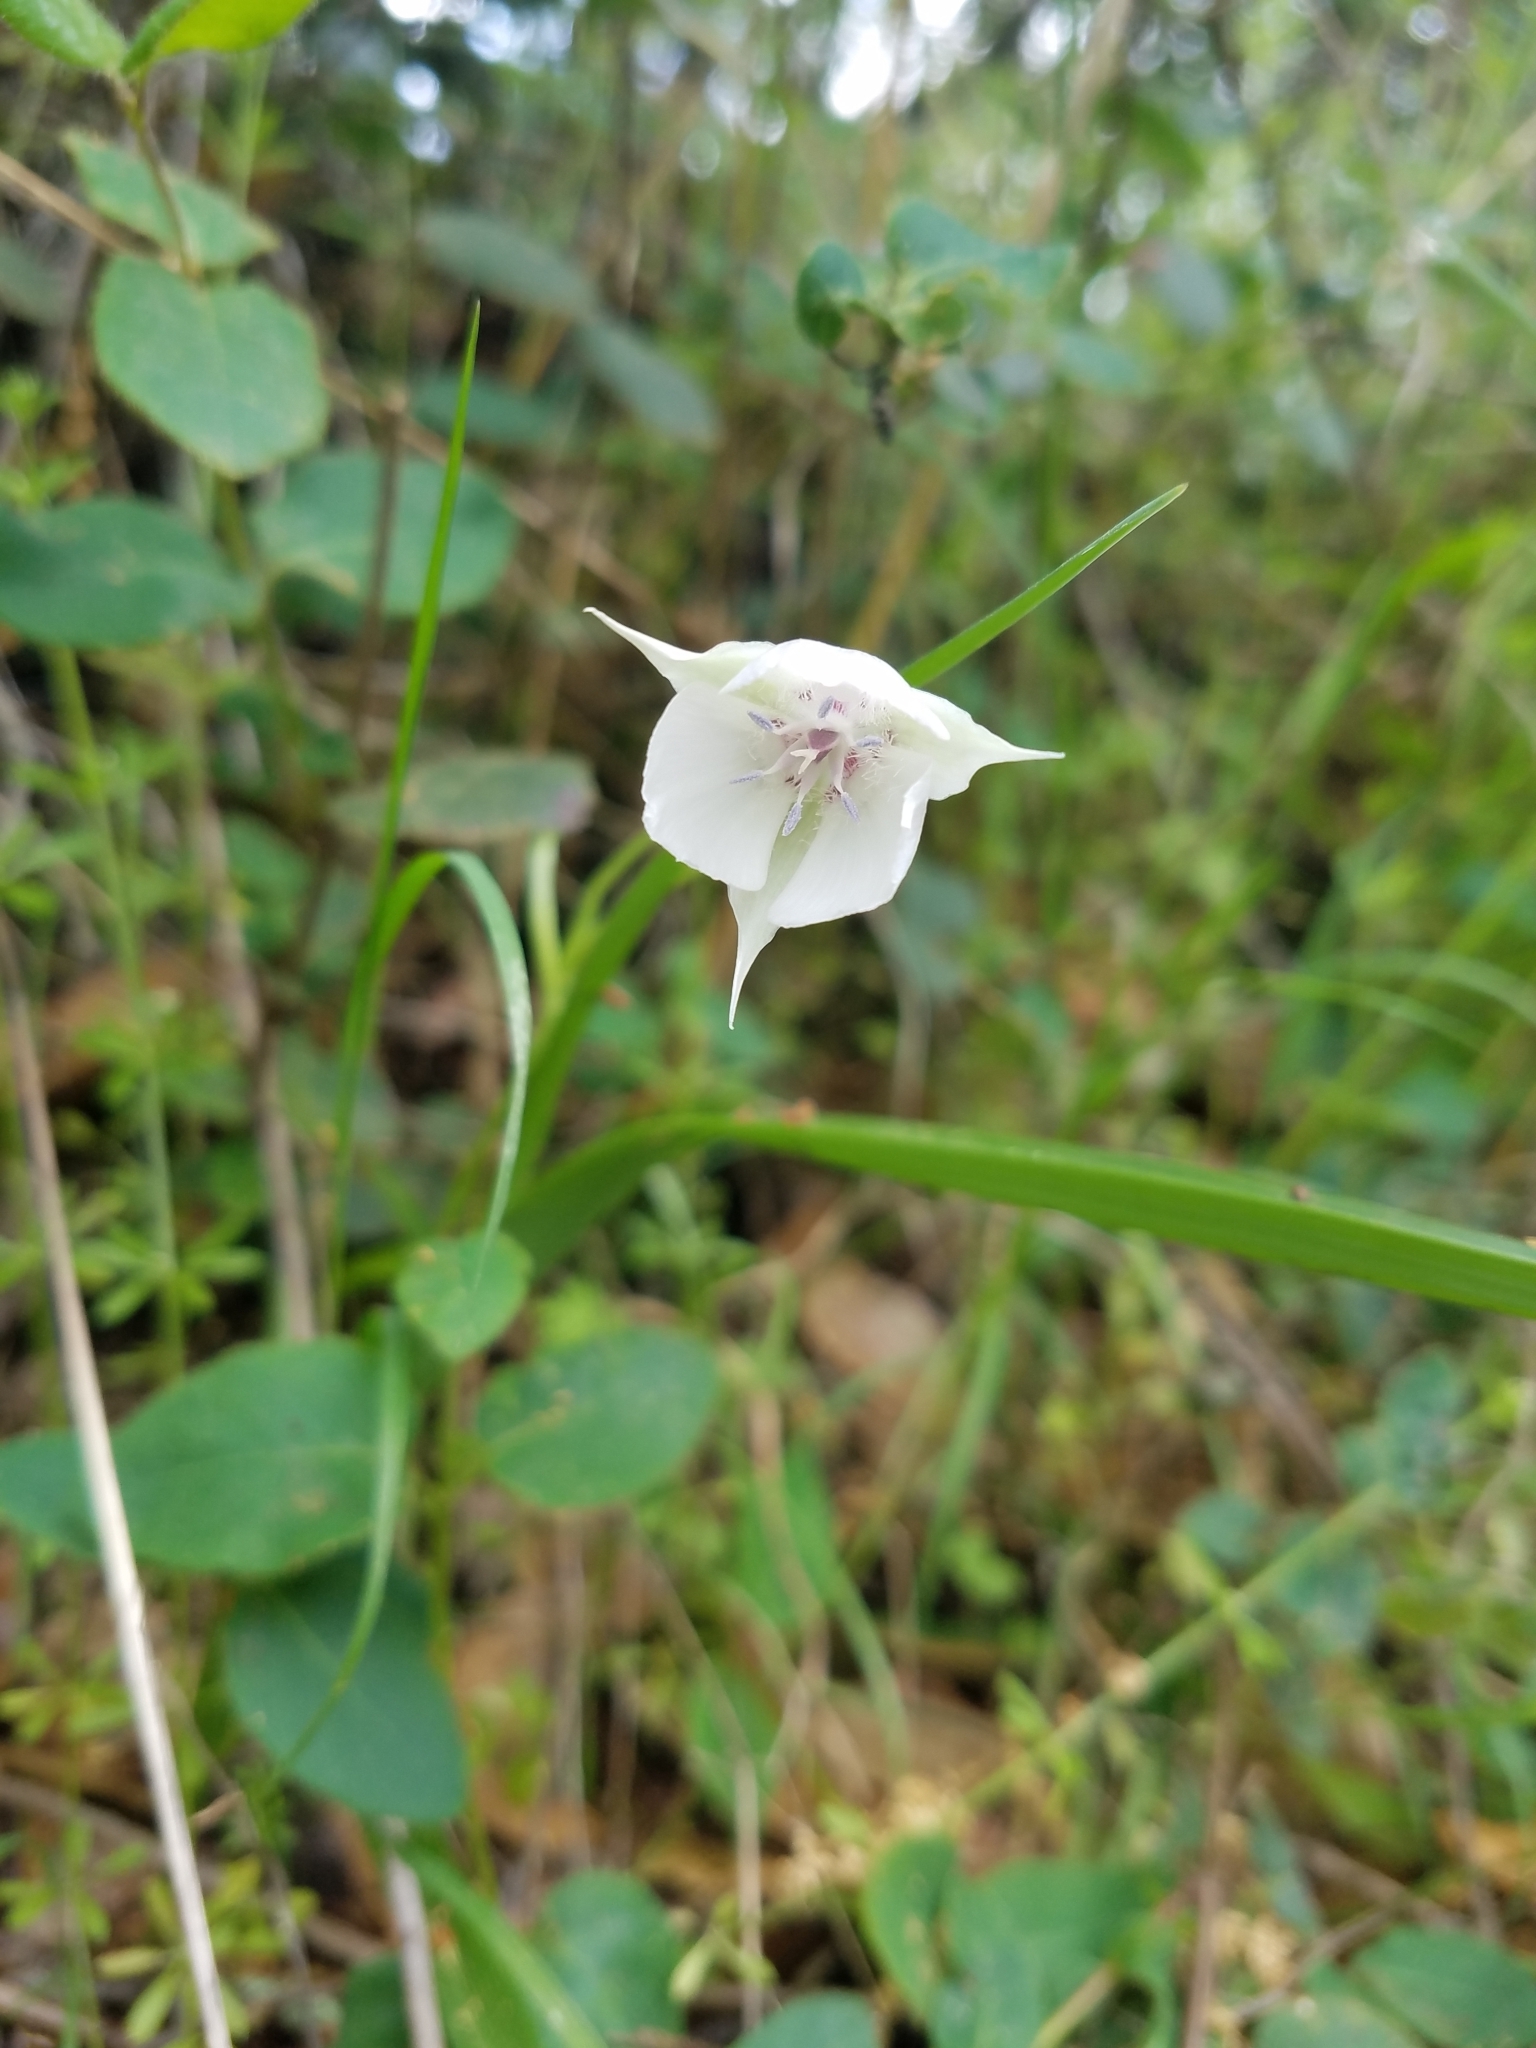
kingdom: Plantae
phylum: Tracheophyta
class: Liliopsida
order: Liliales
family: Liliaceae
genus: Calochortus
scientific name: Calochortus umbellatus
